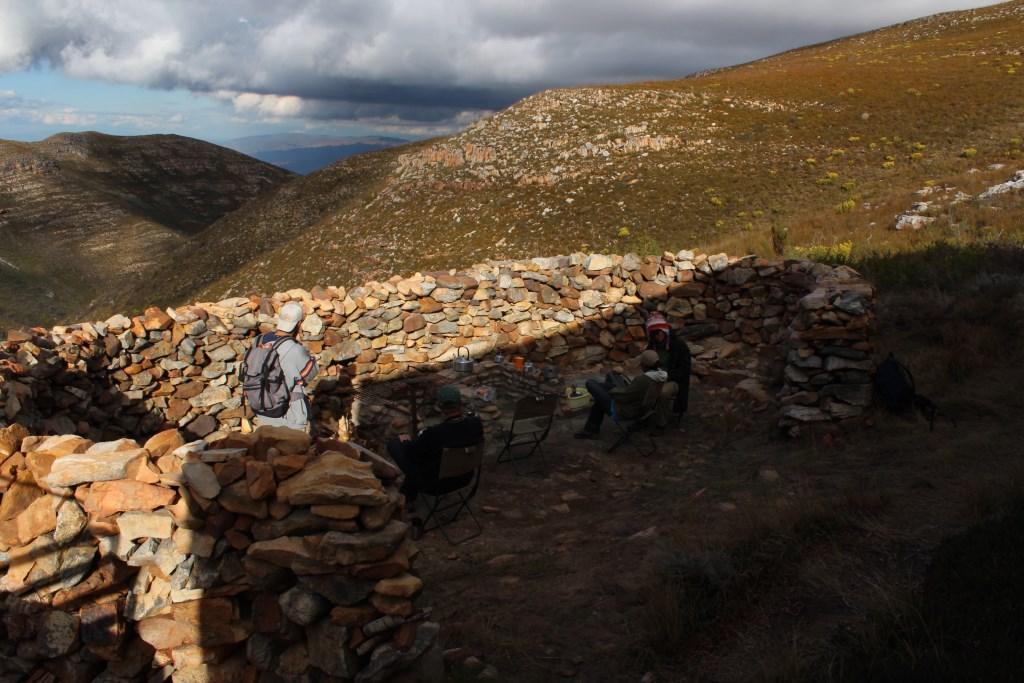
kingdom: Plantae
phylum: Tracheophyta
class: Magnoliopsida
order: Fabales
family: Fabaceae
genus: Acacia
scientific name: Acacia mearnsii
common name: Black wattle
